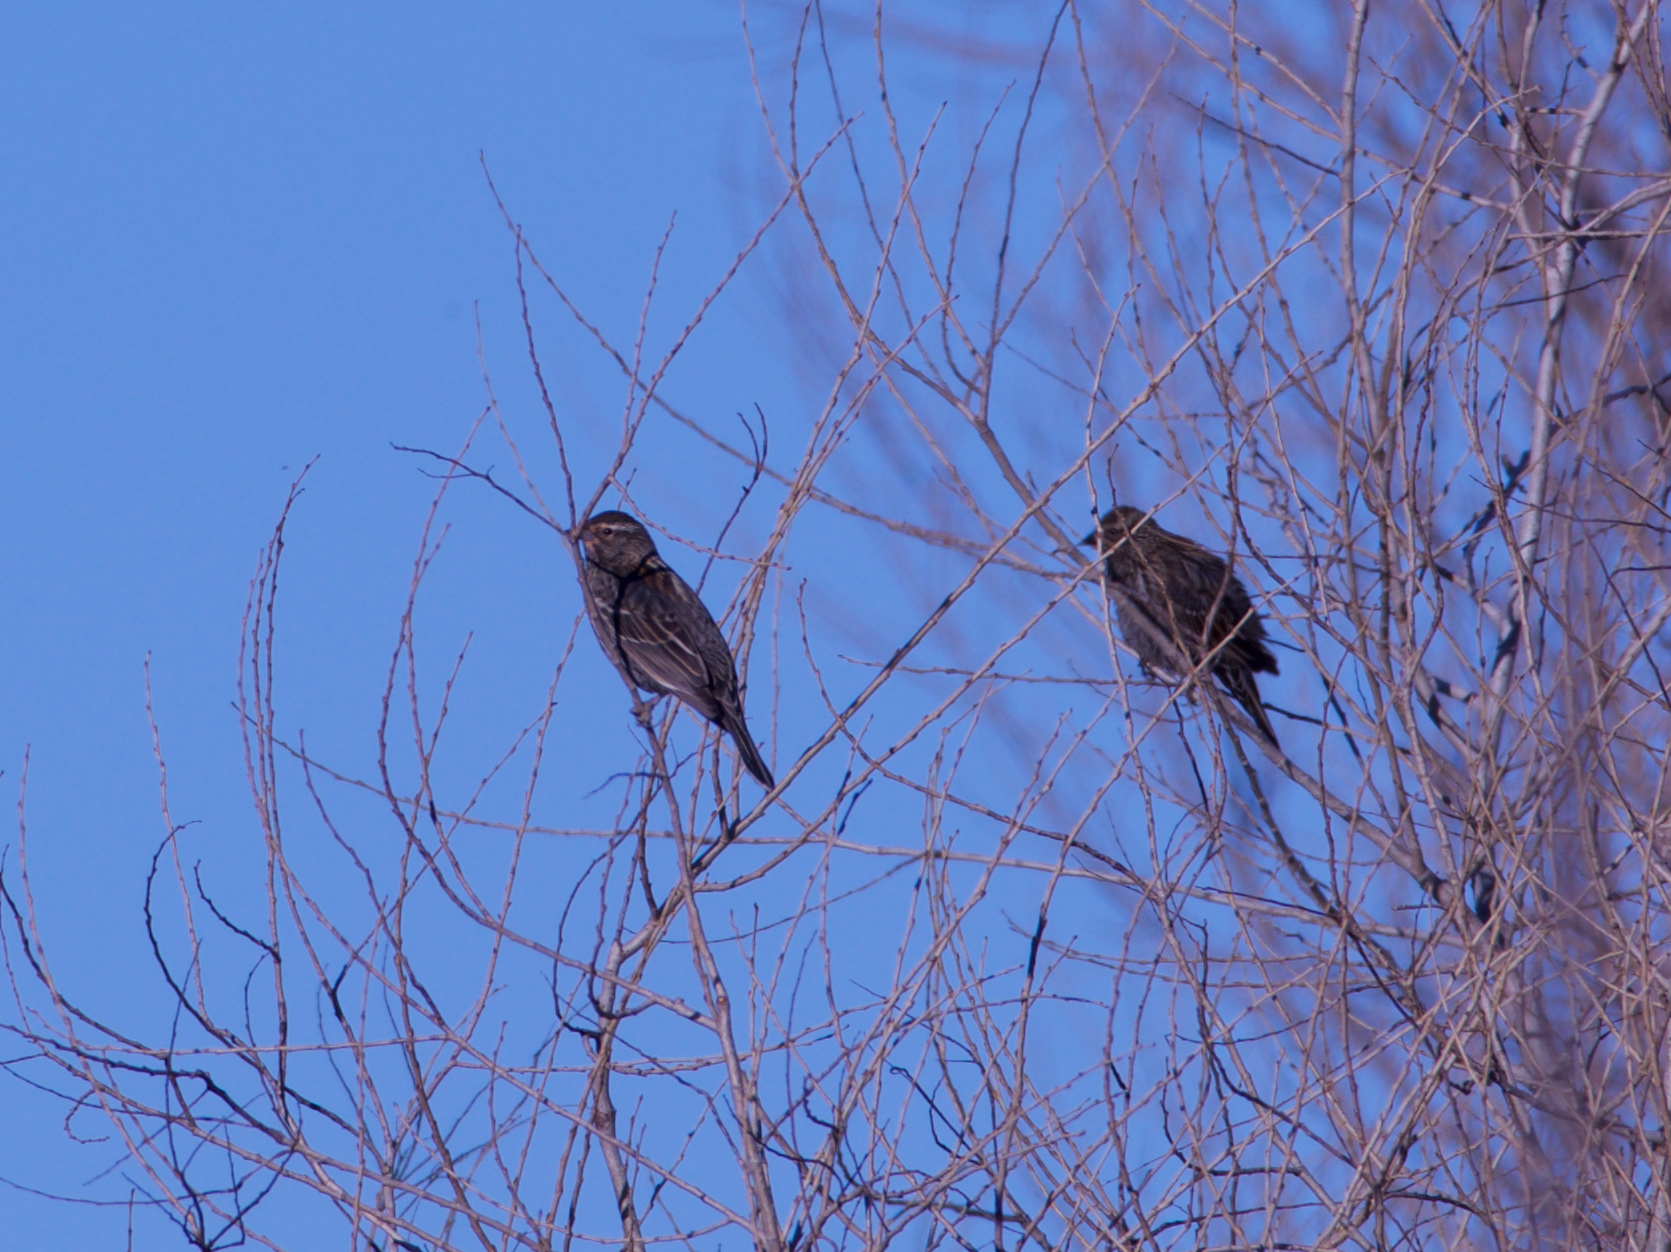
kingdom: Animalia
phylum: Chordata
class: Aves
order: Passeriformes
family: Icteridae
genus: Agelaius
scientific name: Agelaius phoeniceus
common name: Red-winged blackbird
